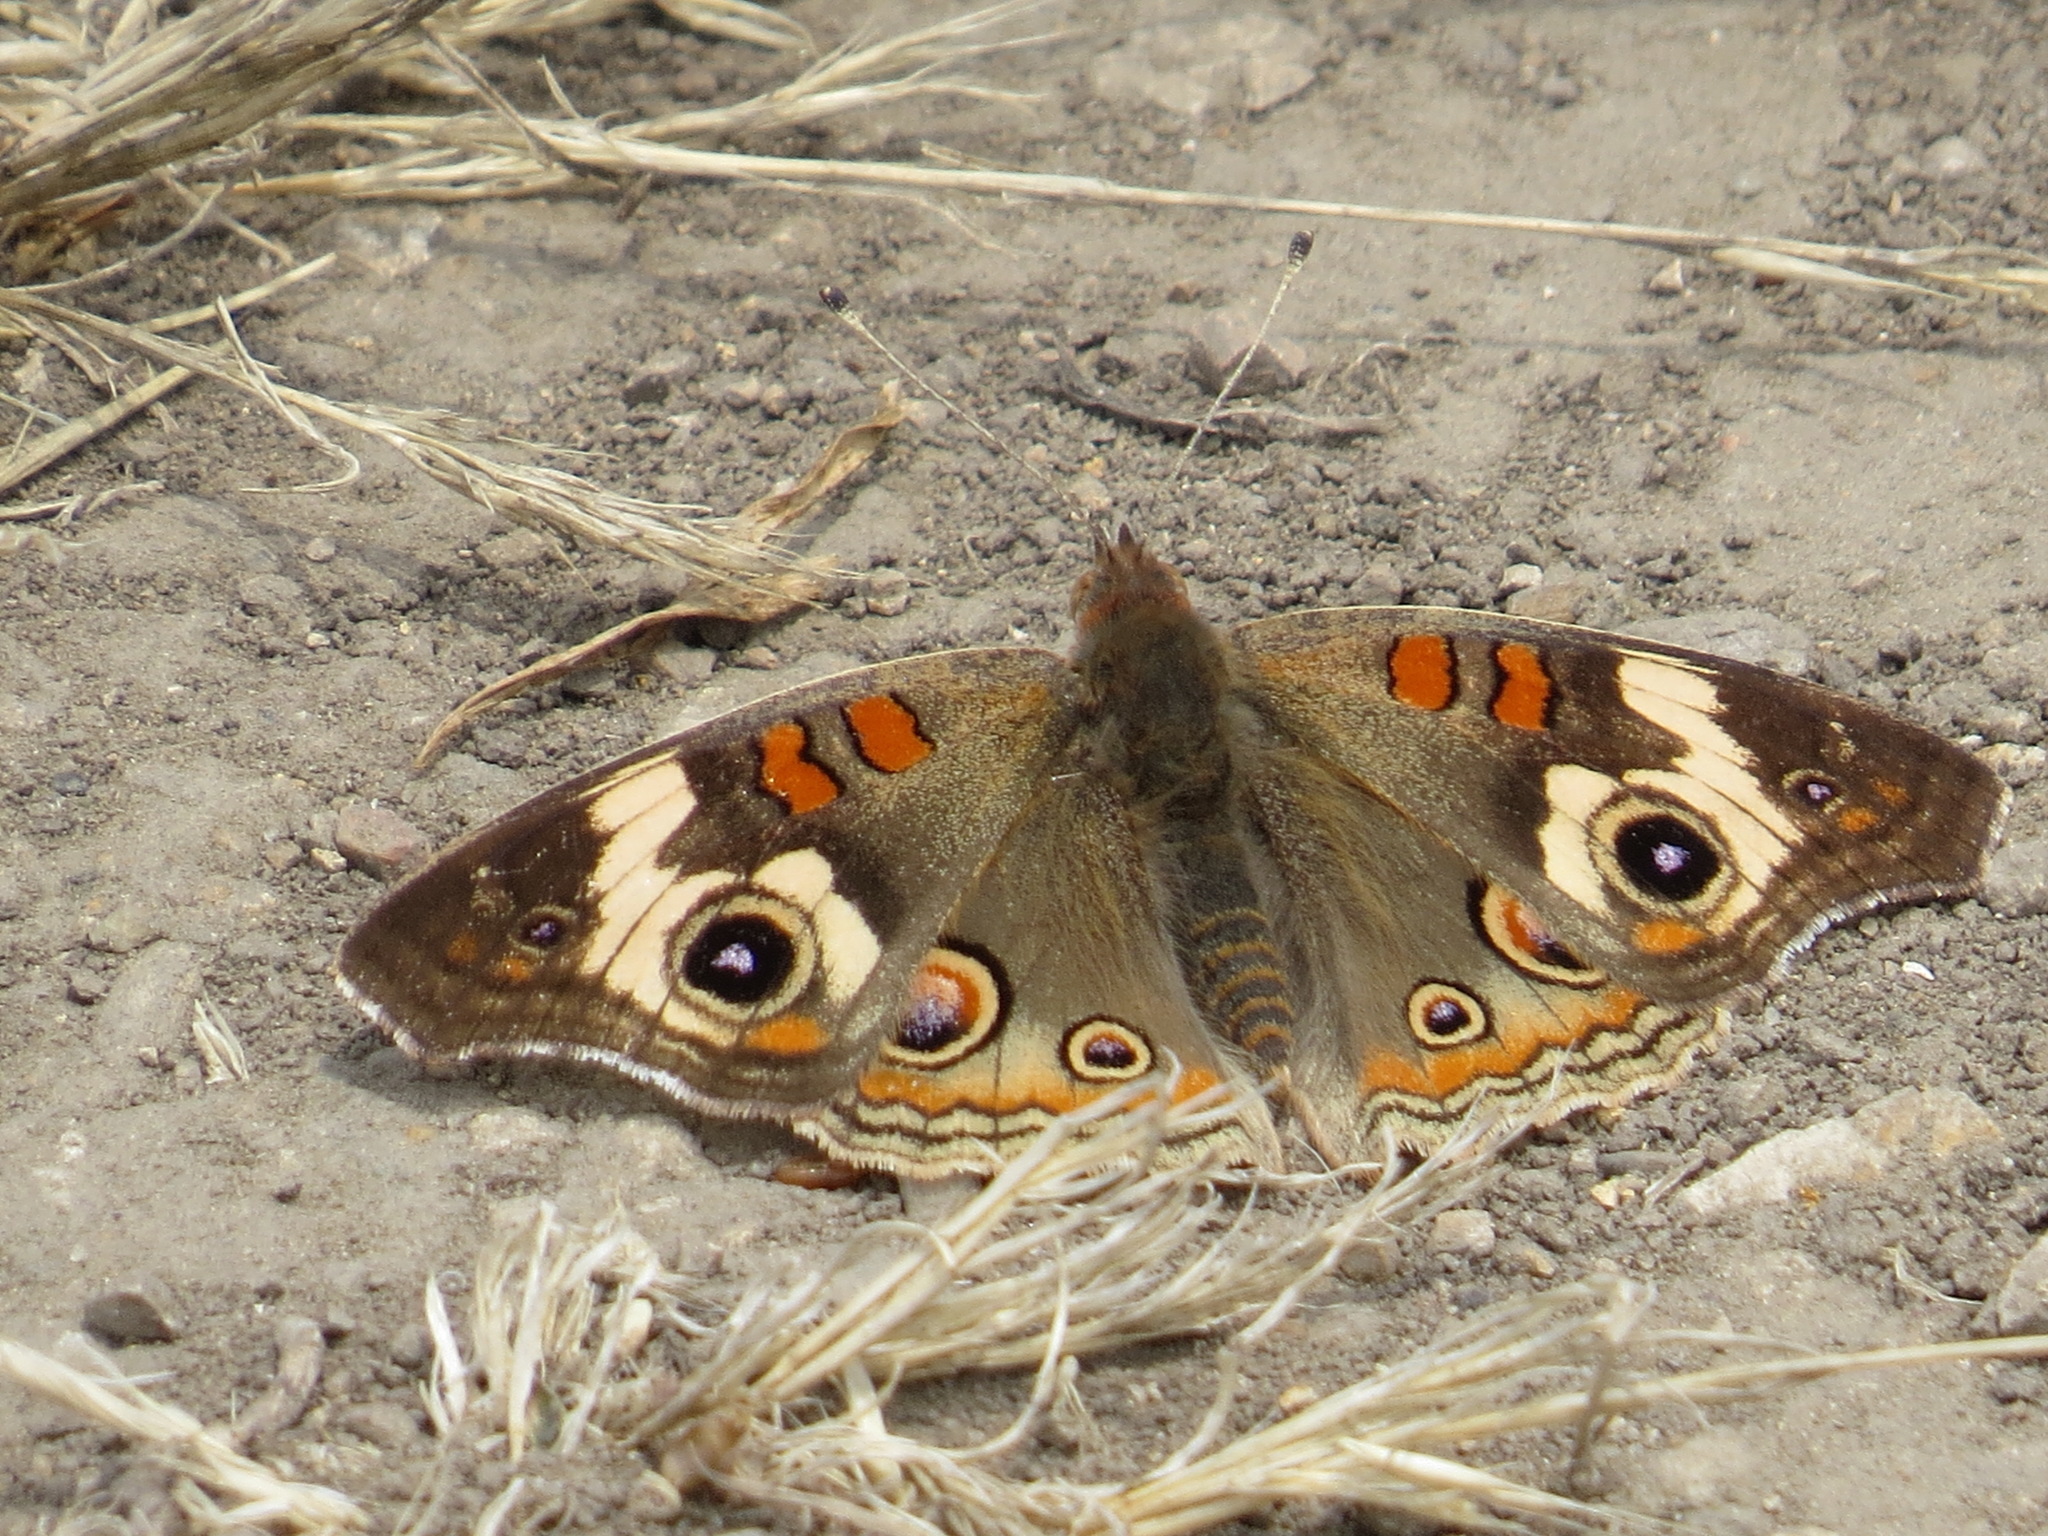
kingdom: Animalia
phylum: Arthropoda
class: Insecta
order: Lepidoptera
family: Nymphalidae
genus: Junonia
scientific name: Junonia grisea
